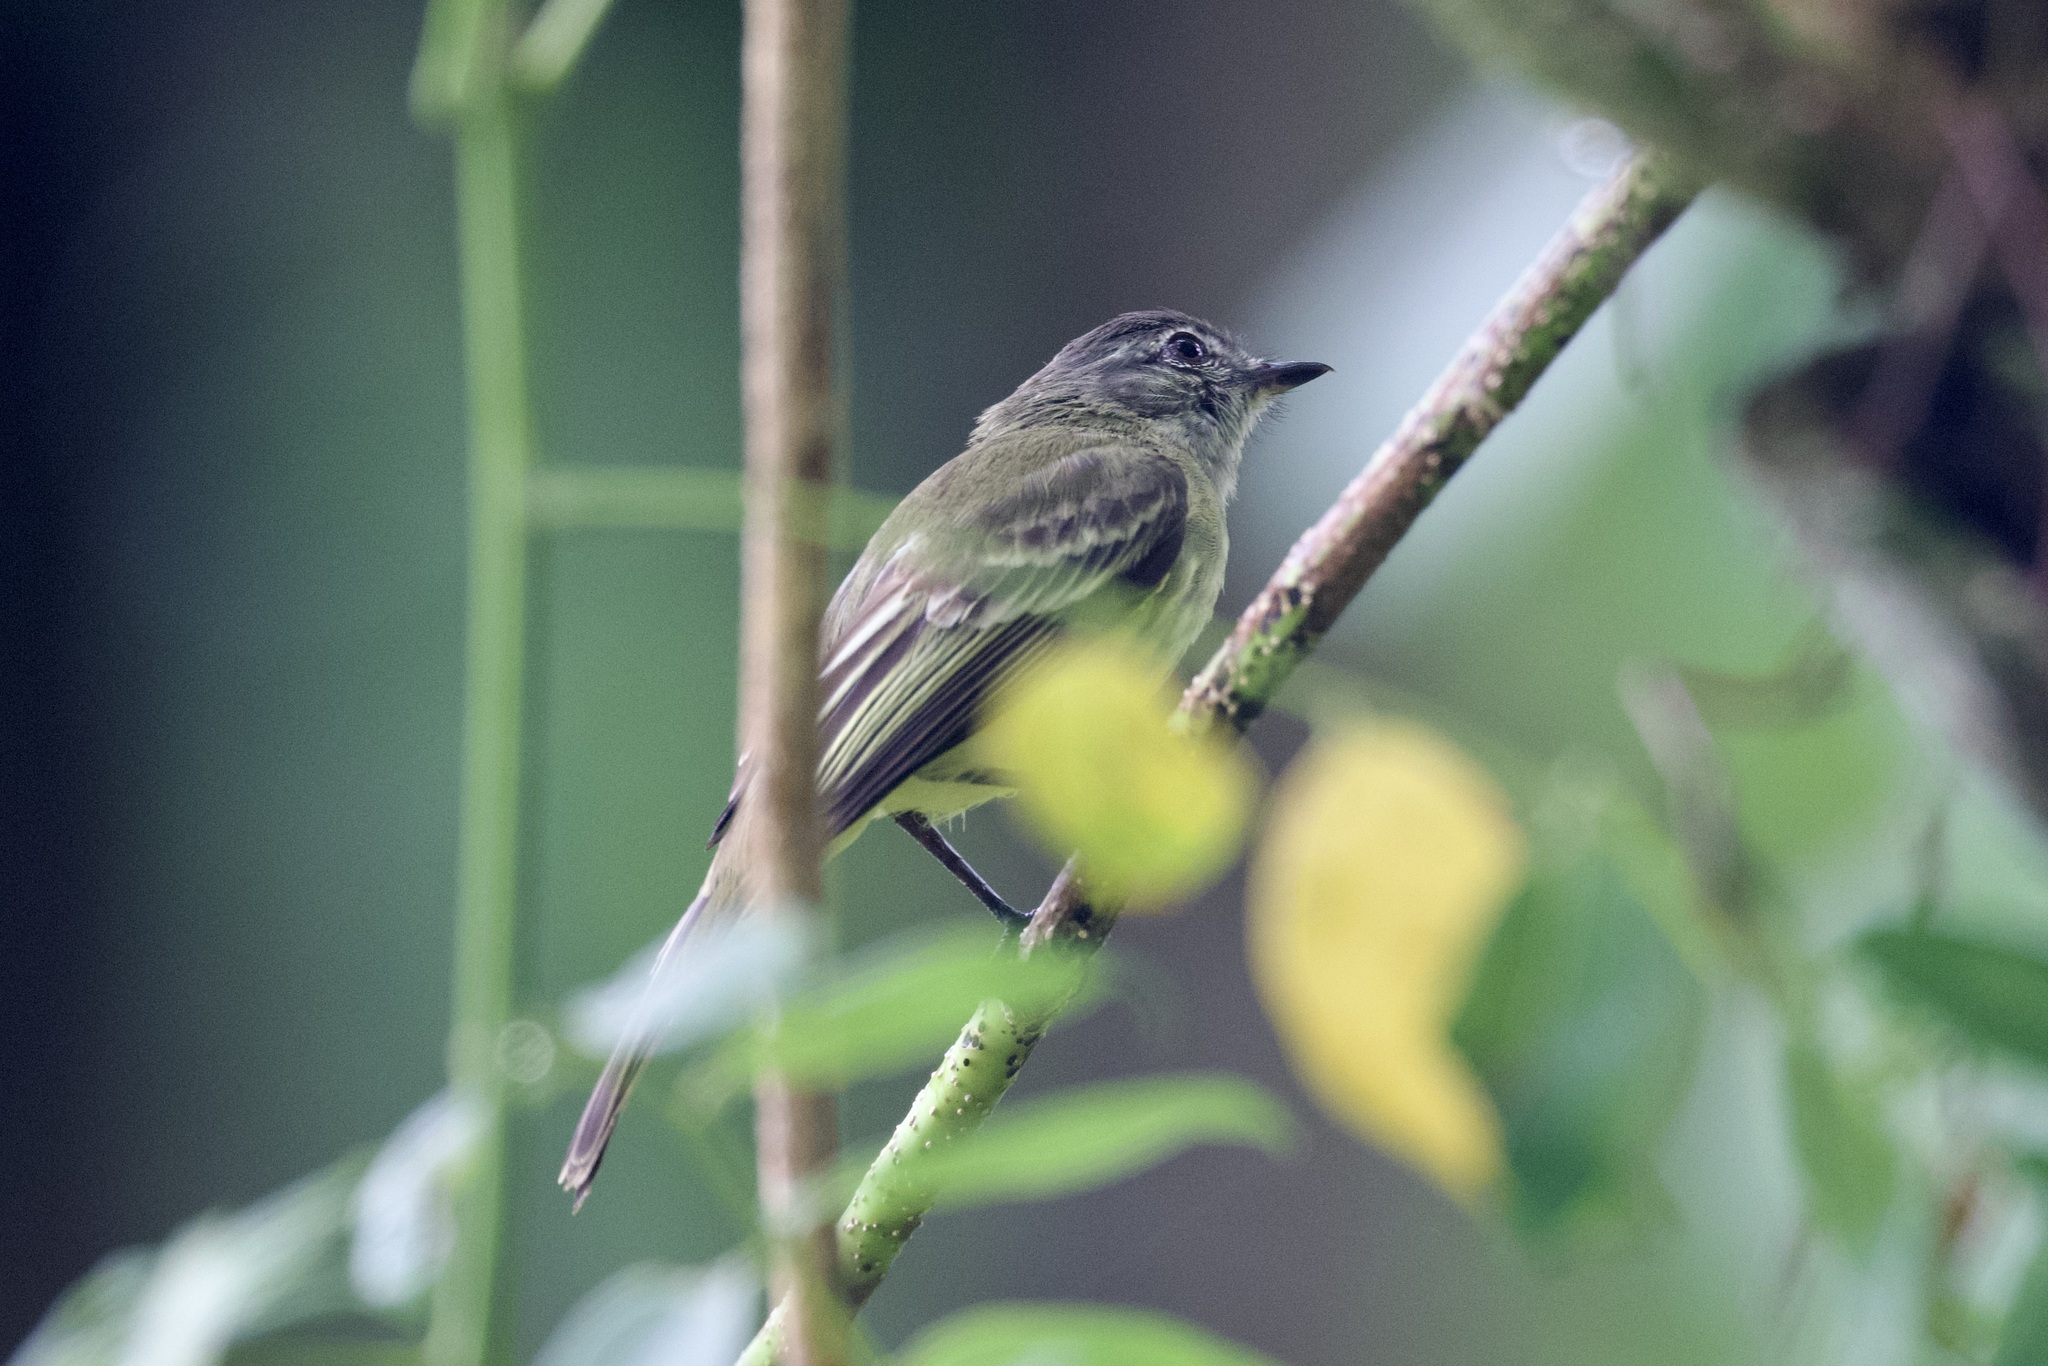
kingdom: Animalia
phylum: Chordata
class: Aves
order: Passeriformes
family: Tyrannidae
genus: Tyrannulus
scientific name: Tyrannulus elatus
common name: Yellow-crowned tyrannulet
